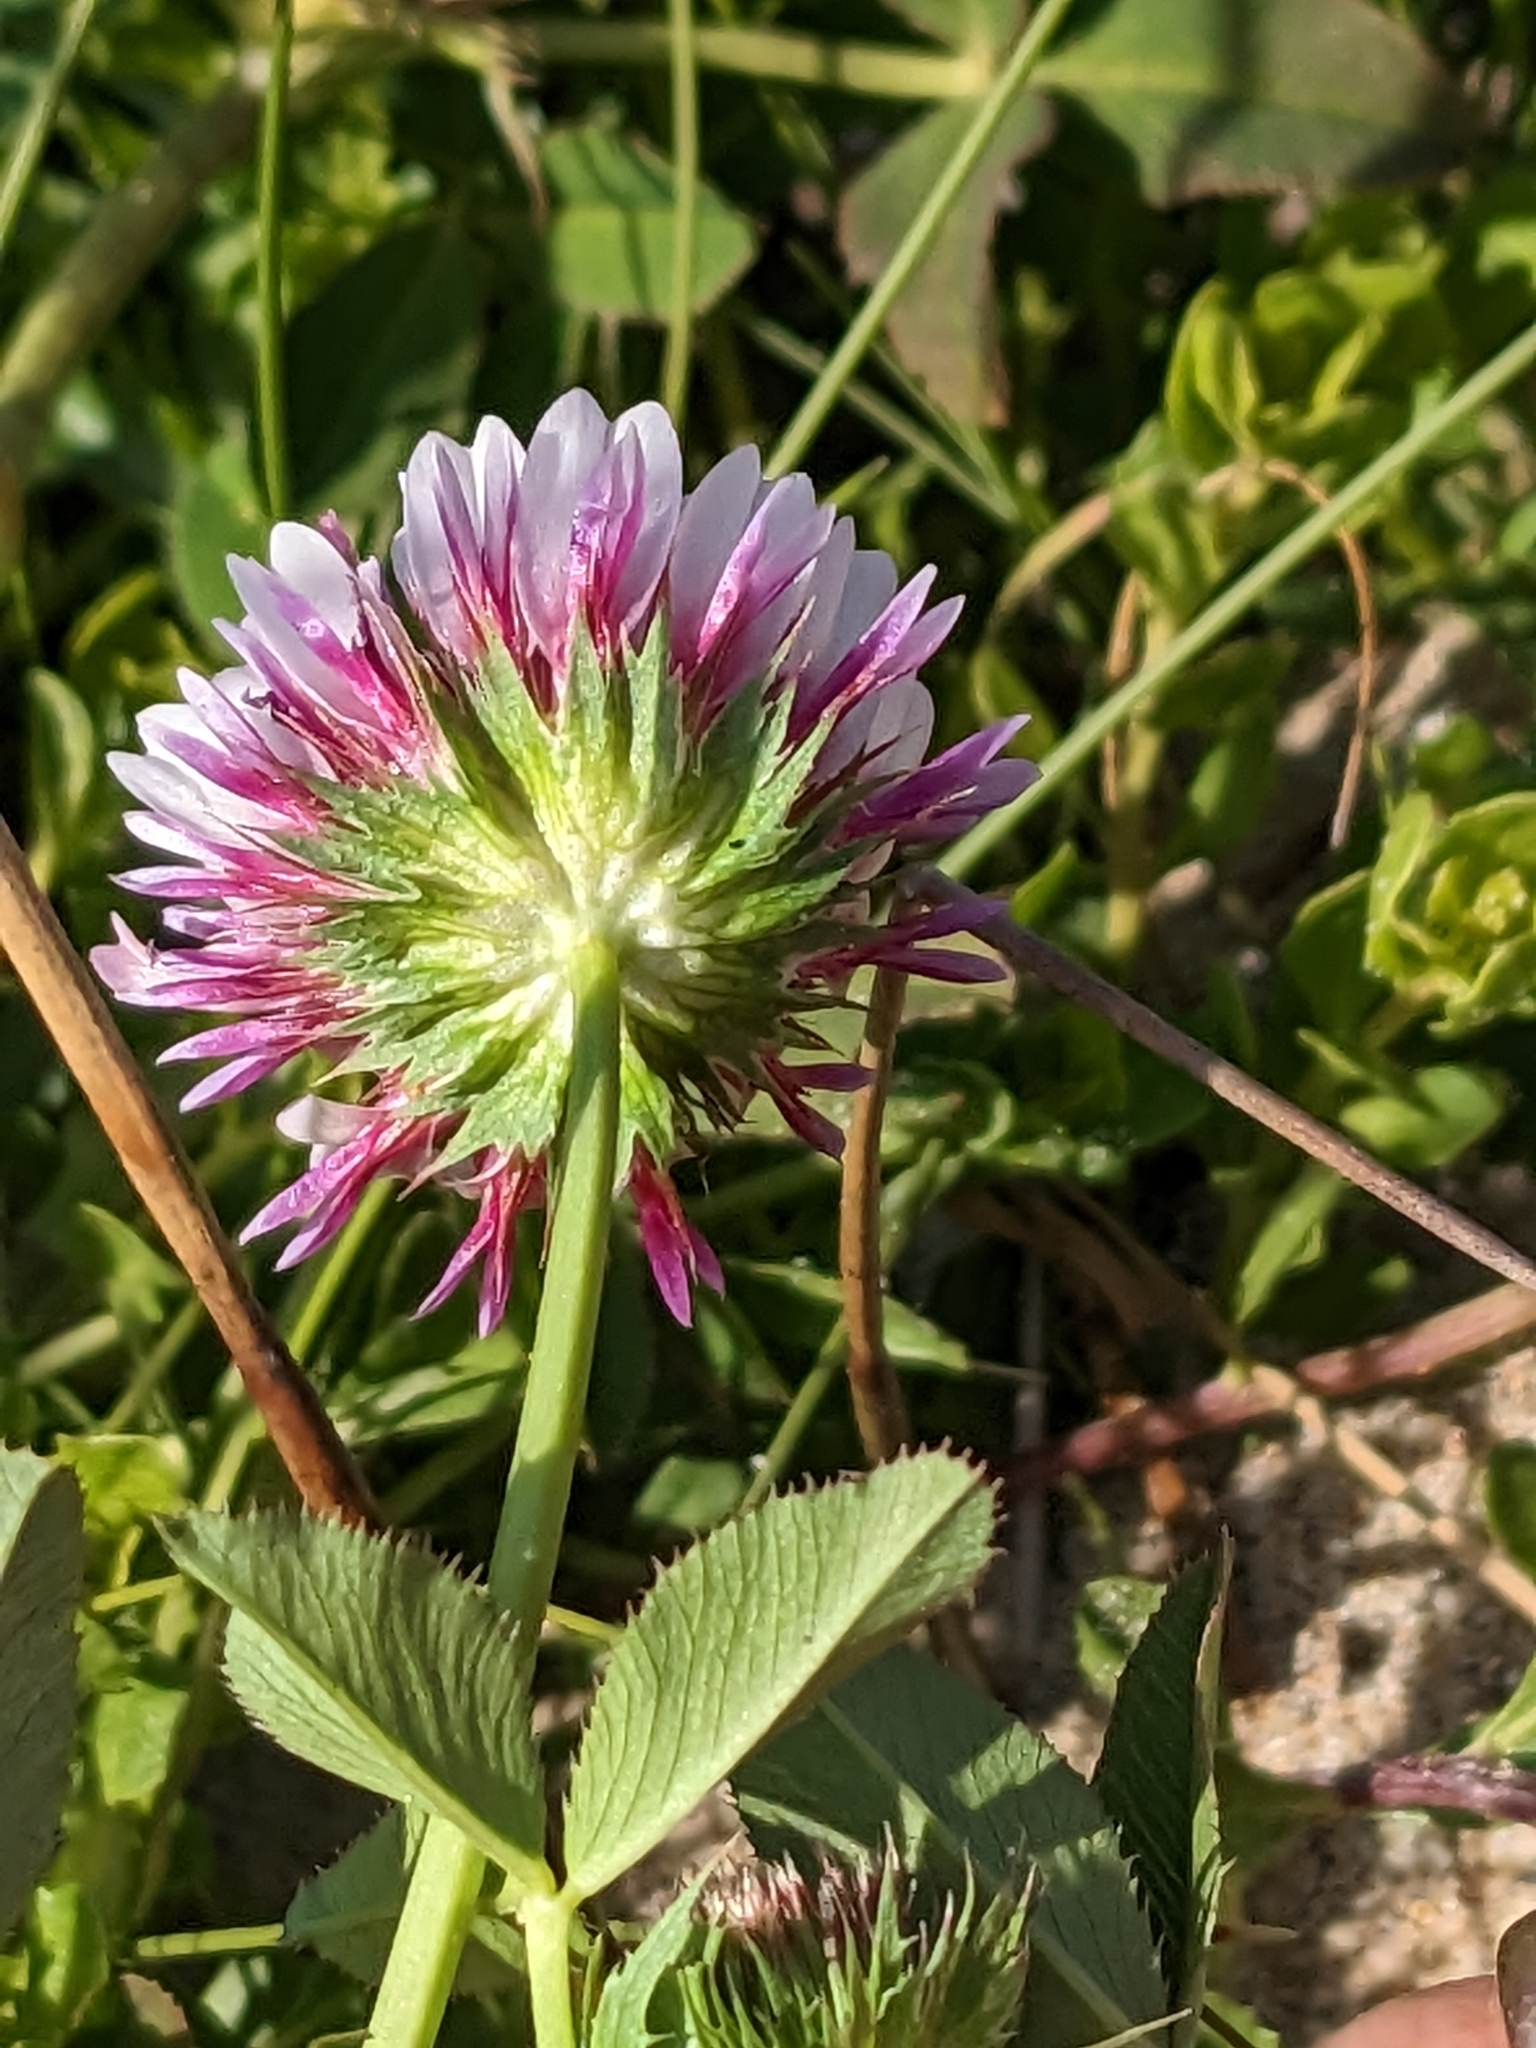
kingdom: Plantae
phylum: Tracheophyta
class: Magnoliopsida
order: Fabales
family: Fabaceae
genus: Trifolium
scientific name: Trifolium wormskioldii
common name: Springbank clover
